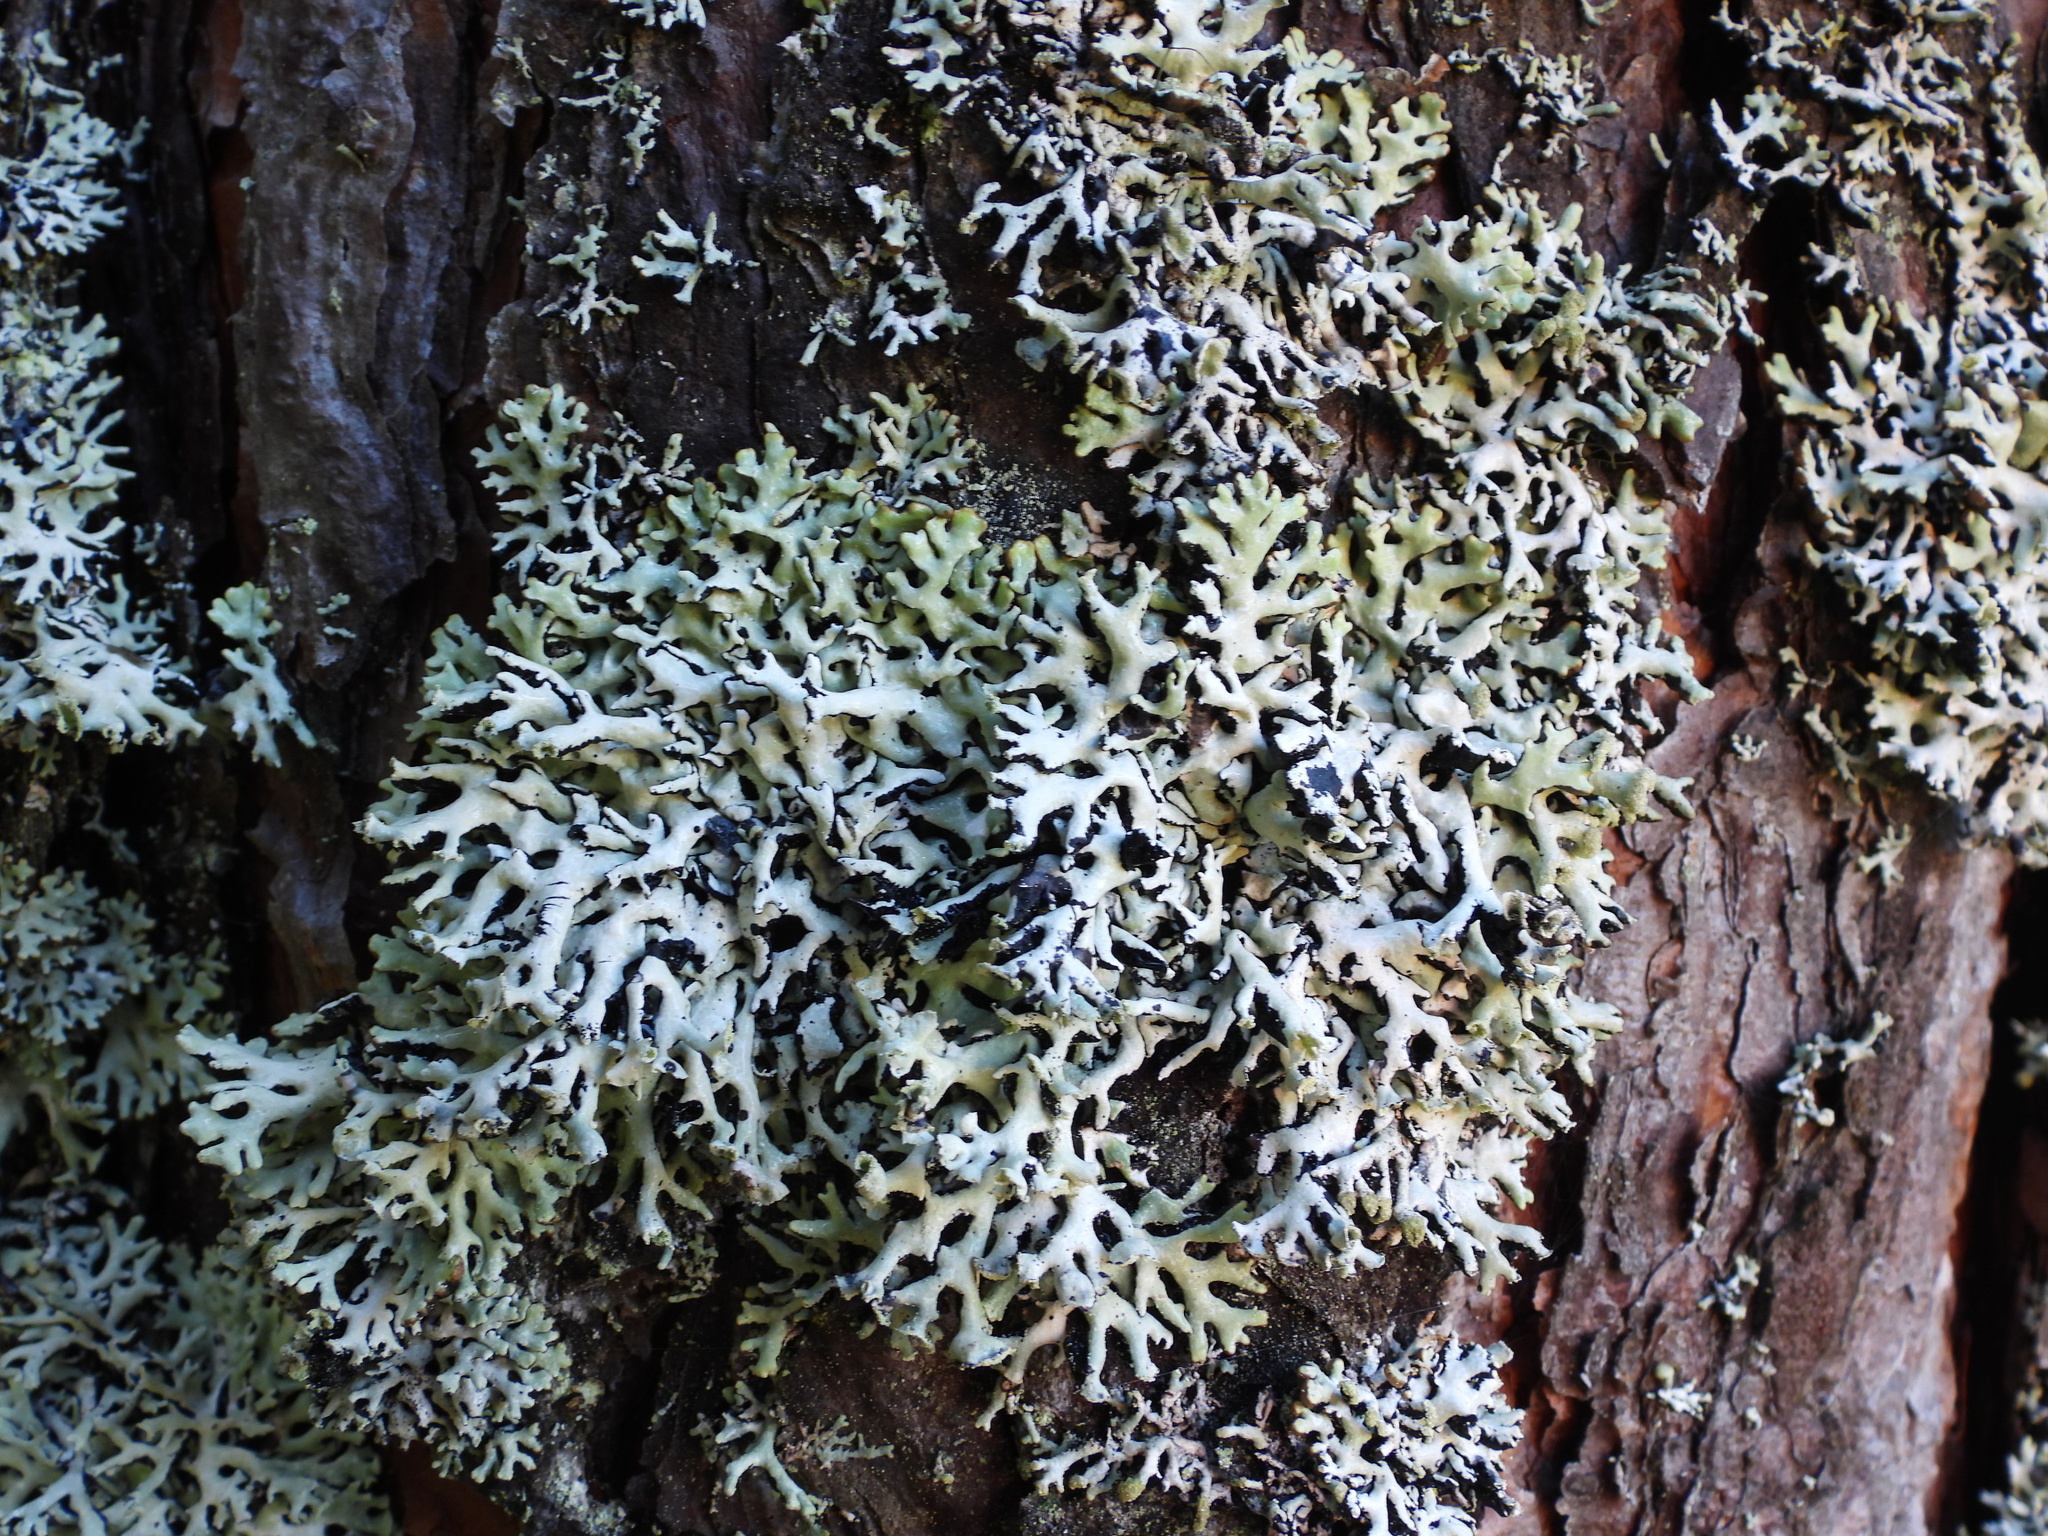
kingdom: Fungi
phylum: Ascomycota
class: Lecanoromycetes
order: Lecanorales
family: Parmeliaceae
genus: Hypogymnia
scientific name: Hypogymnia physodes
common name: Dark crottle
